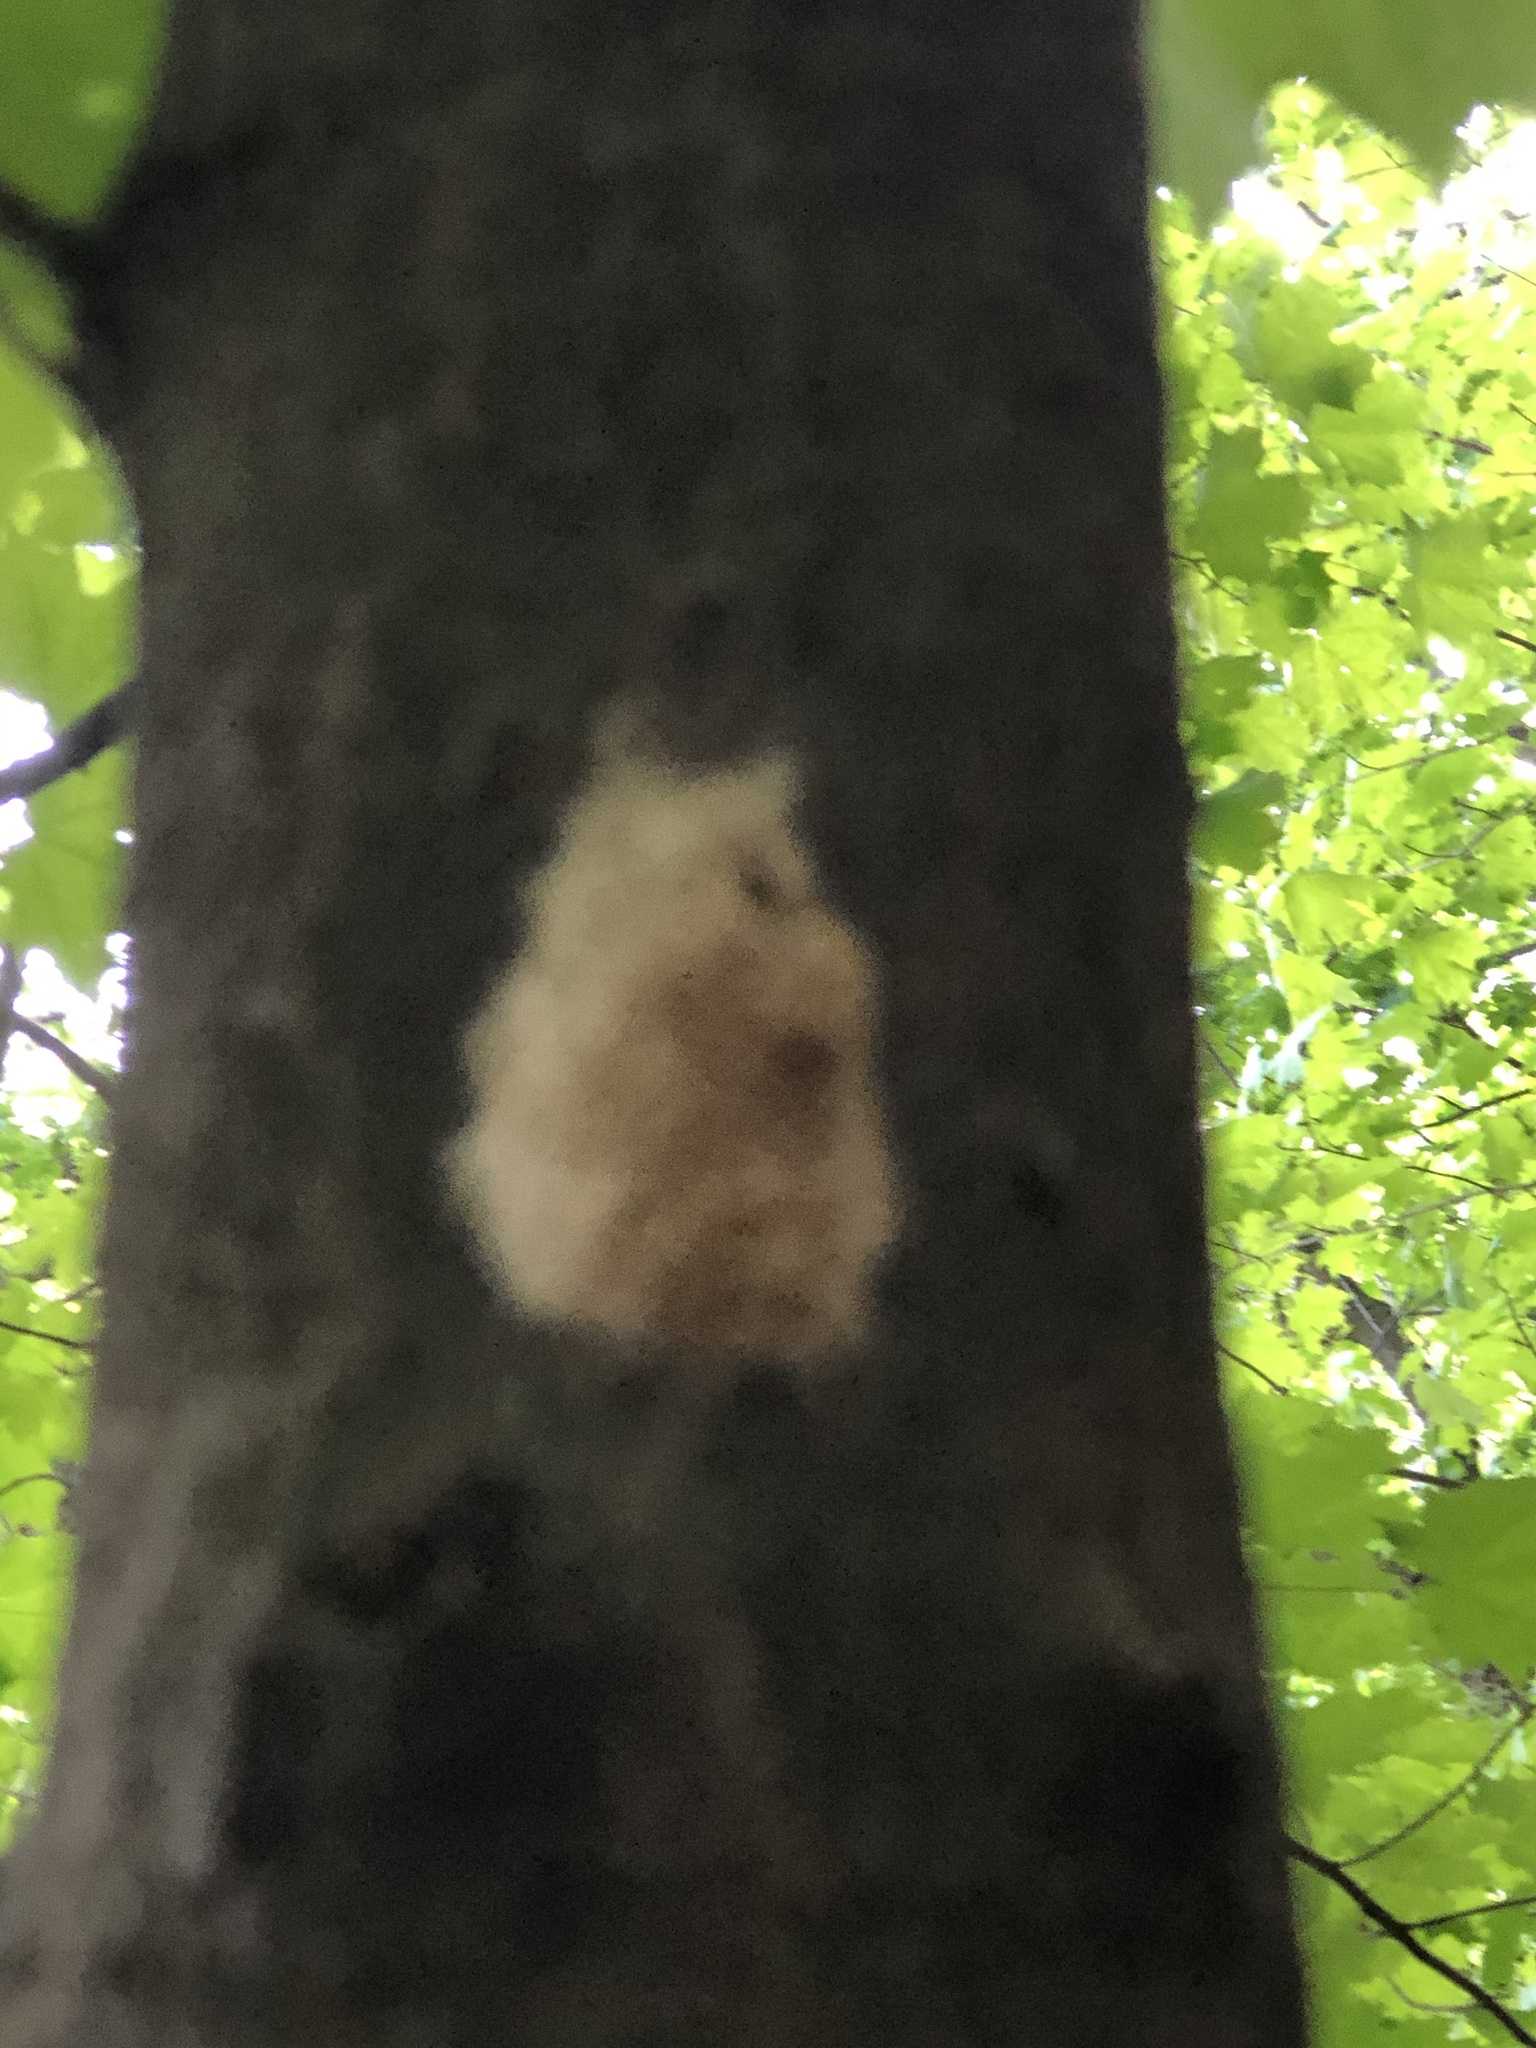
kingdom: Animalia
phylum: Arthropoda
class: Insecta
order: Lepidoptera
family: Erebidae
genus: Lymantria
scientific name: Lymantria dispar
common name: Gypsy moth
